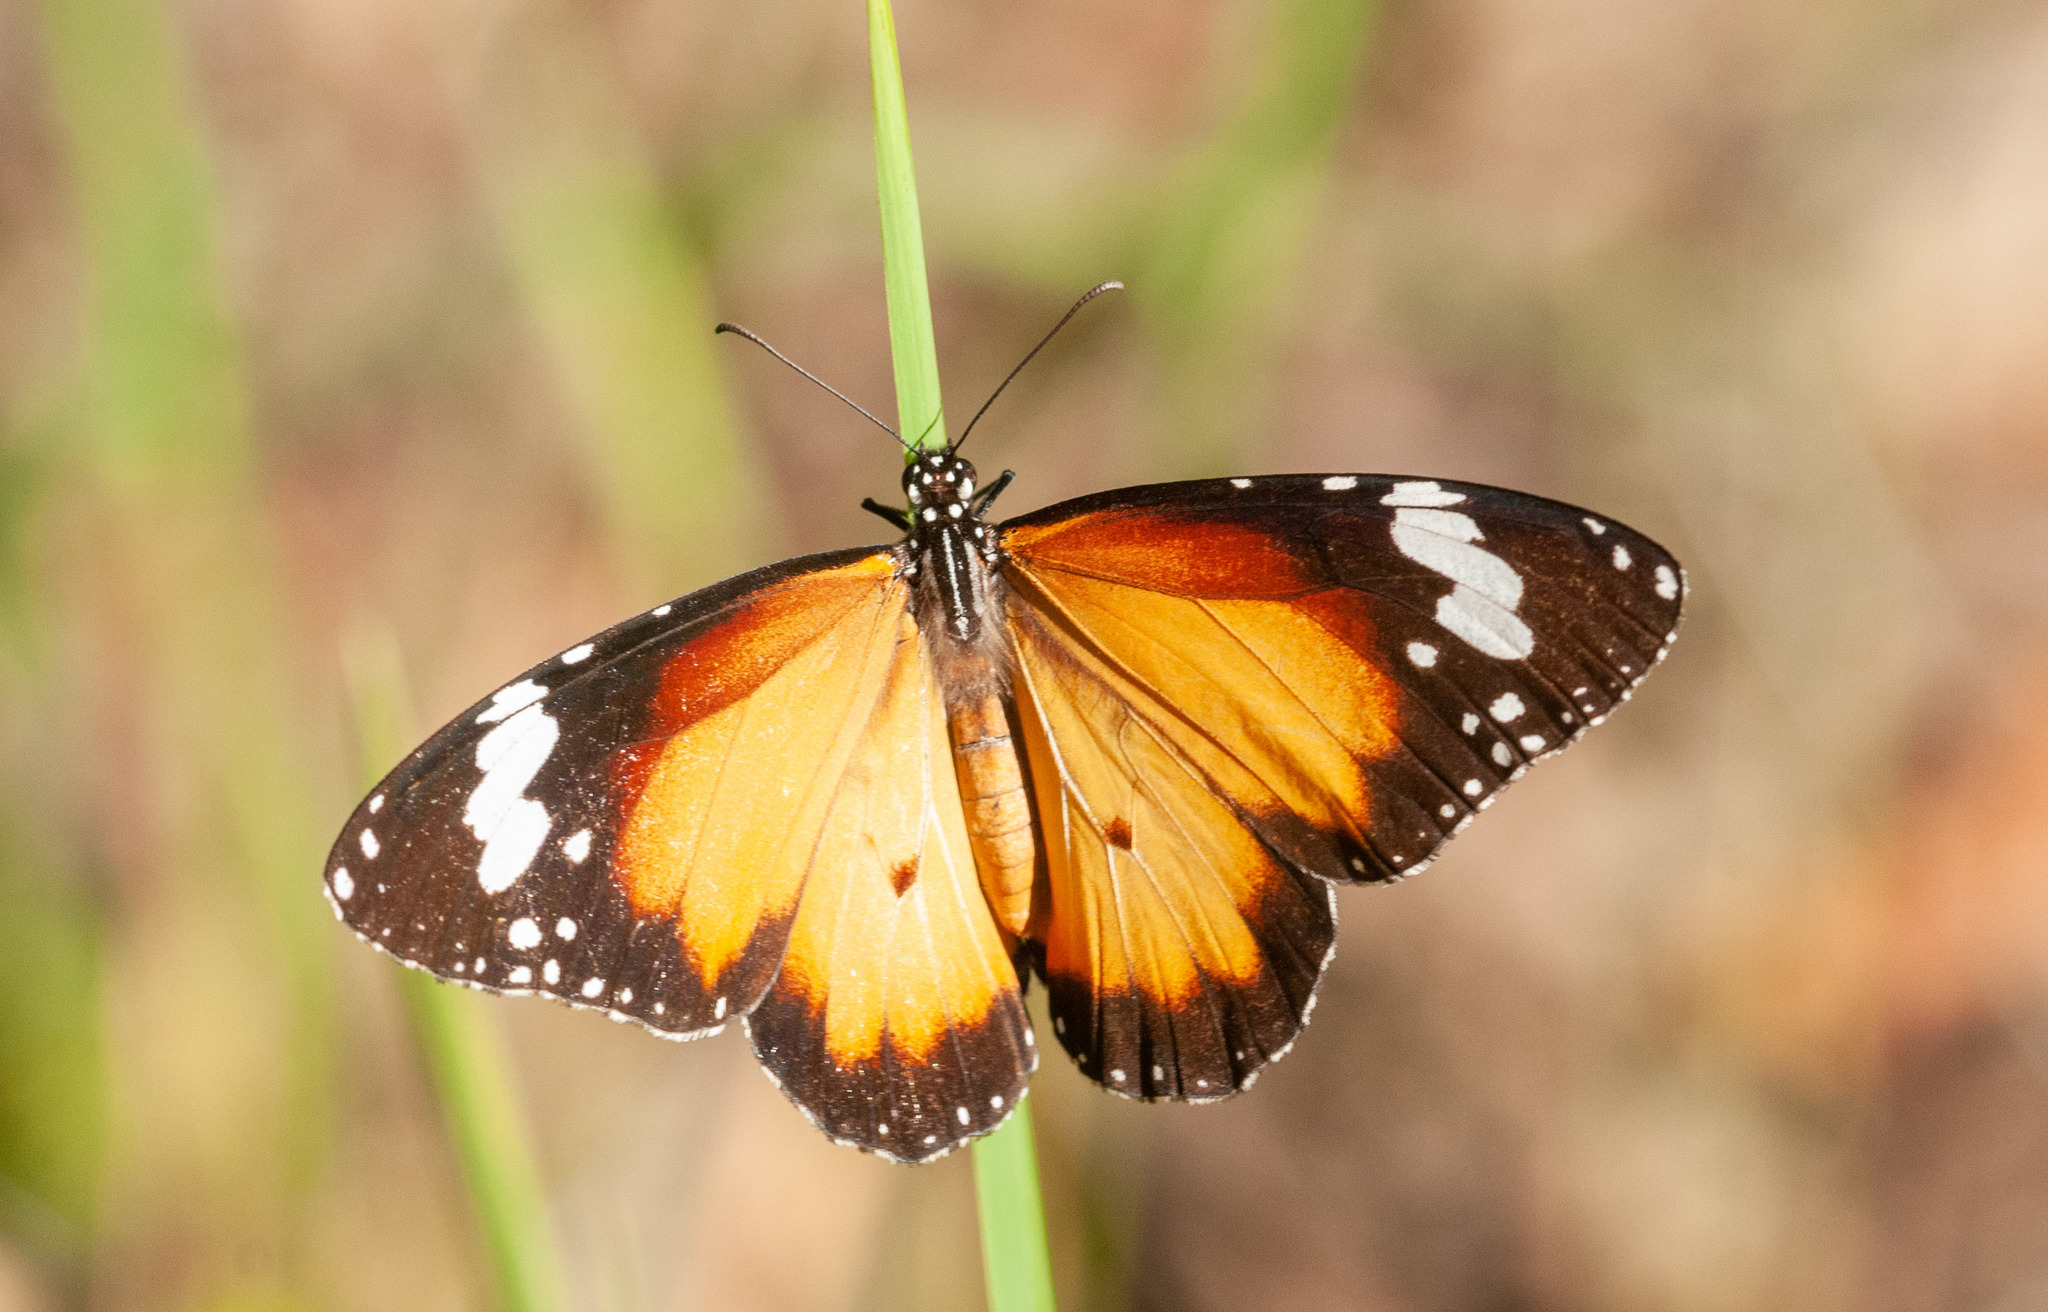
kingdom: Animalia
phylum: Arthropoda
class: Insecta
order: Lepidoptera
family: Nymphalidae
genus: Danaus
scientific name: Danaus chrysippus
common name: Plain tiger
